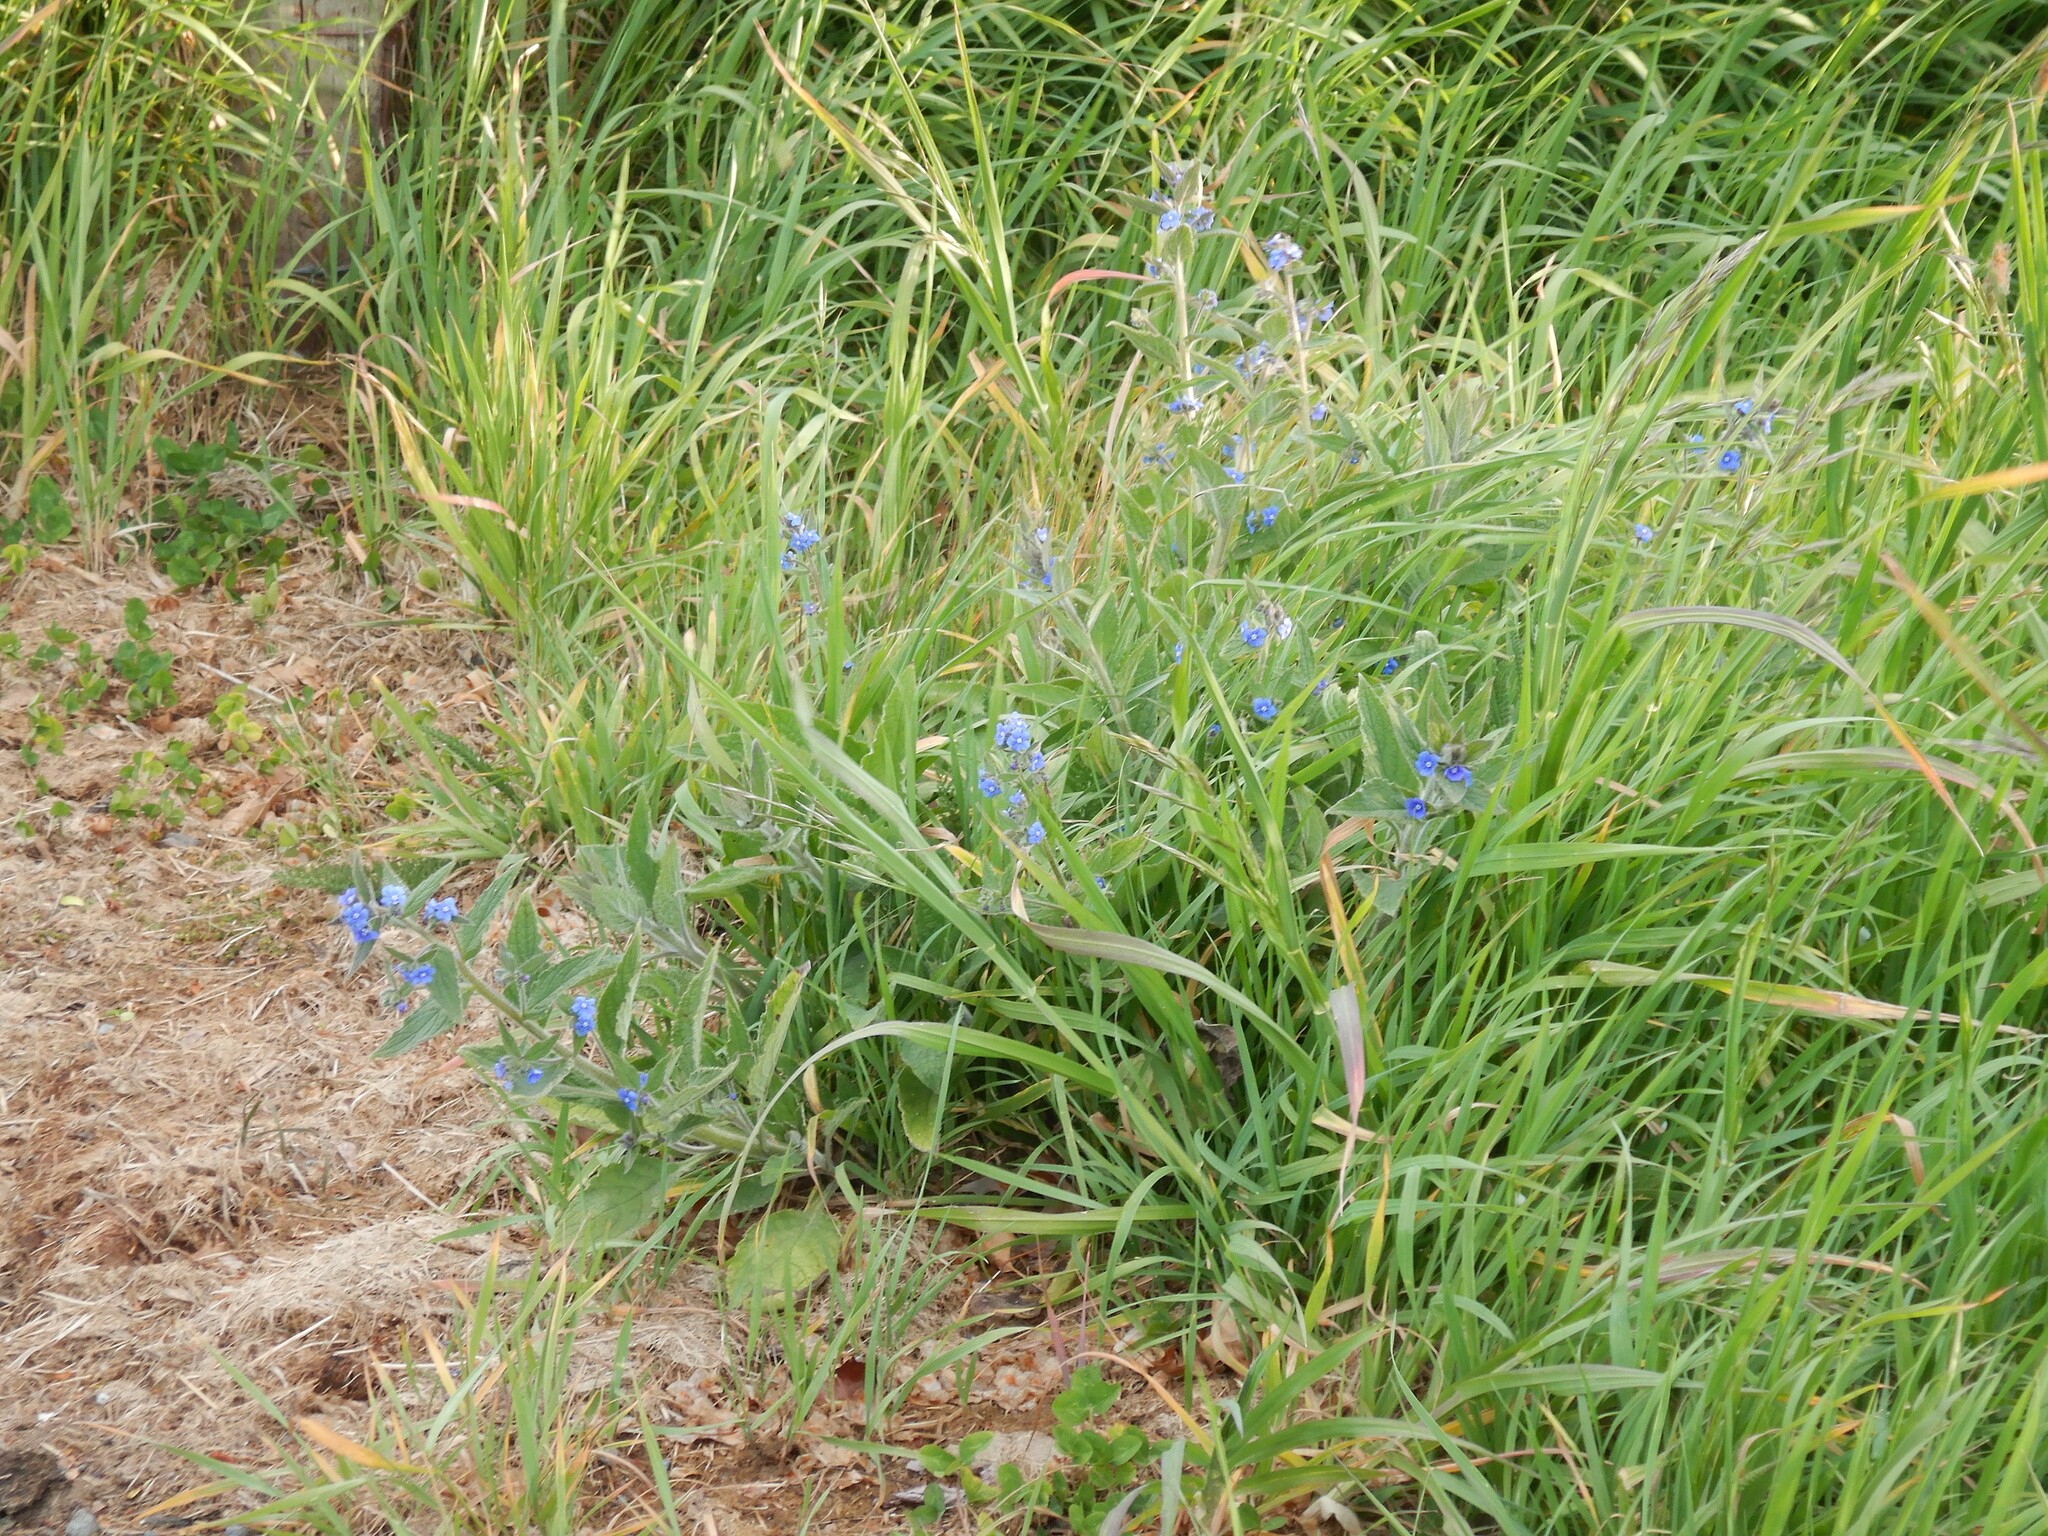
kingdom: Plantae
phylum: Tracheophyta
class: Magnoliopsida
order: Boraginales
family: Boraginaceae
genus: Pentaglottis
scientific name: Pentaglottis sempervirens
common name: Green alkanet
